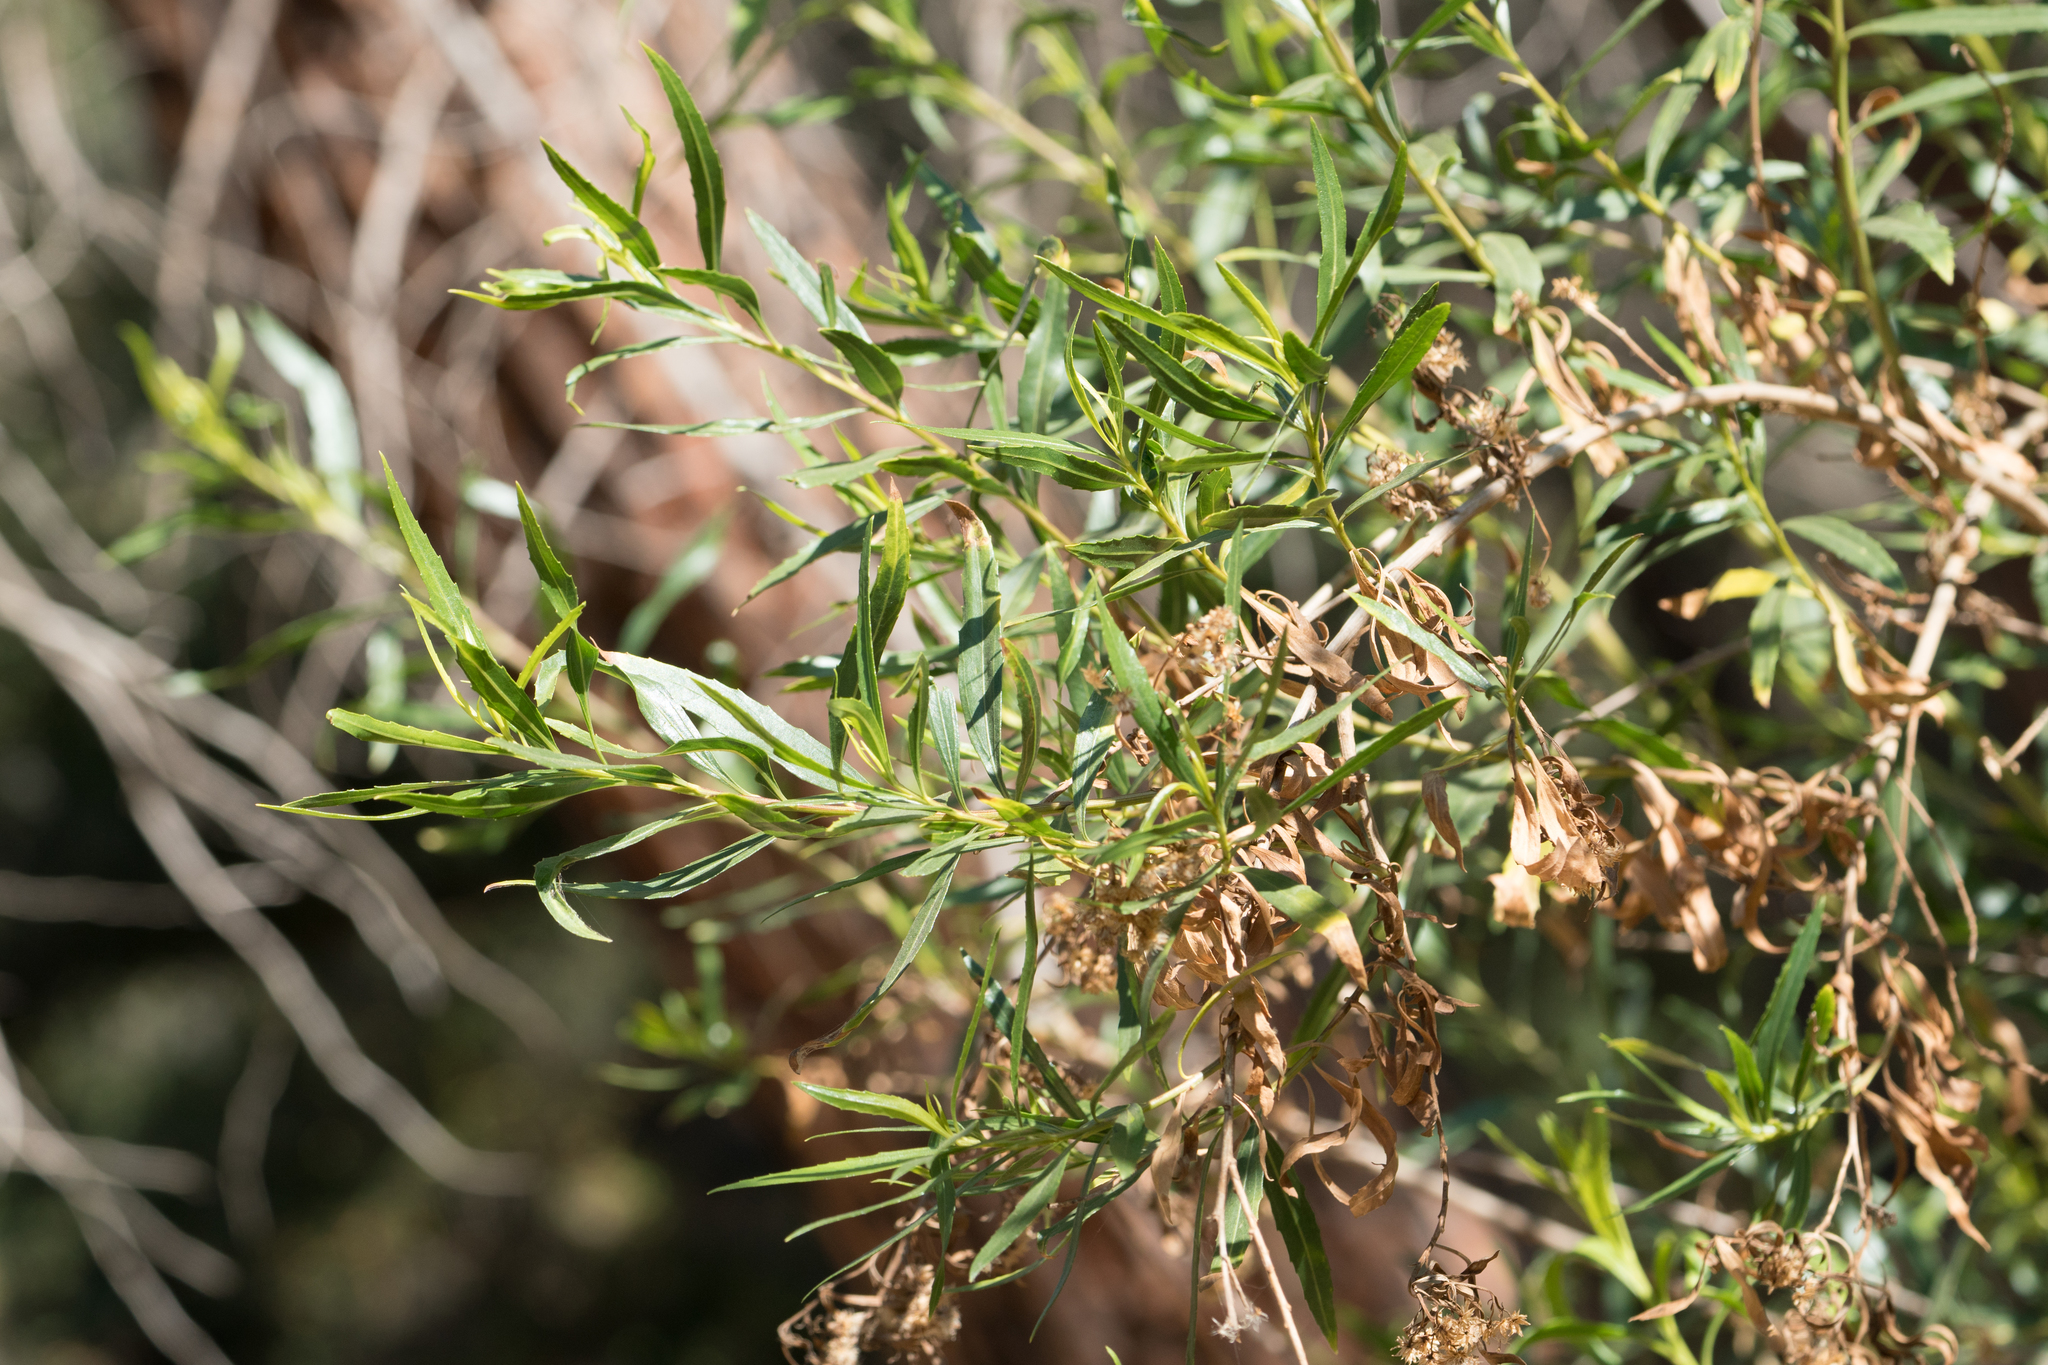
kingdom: Plantae
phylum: Tracheophyta
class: Magnoliopsida
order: Asterales
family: Asteraceae
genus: Baccharis
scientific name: Baccharis salicifolia
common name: Sticky baccharis
